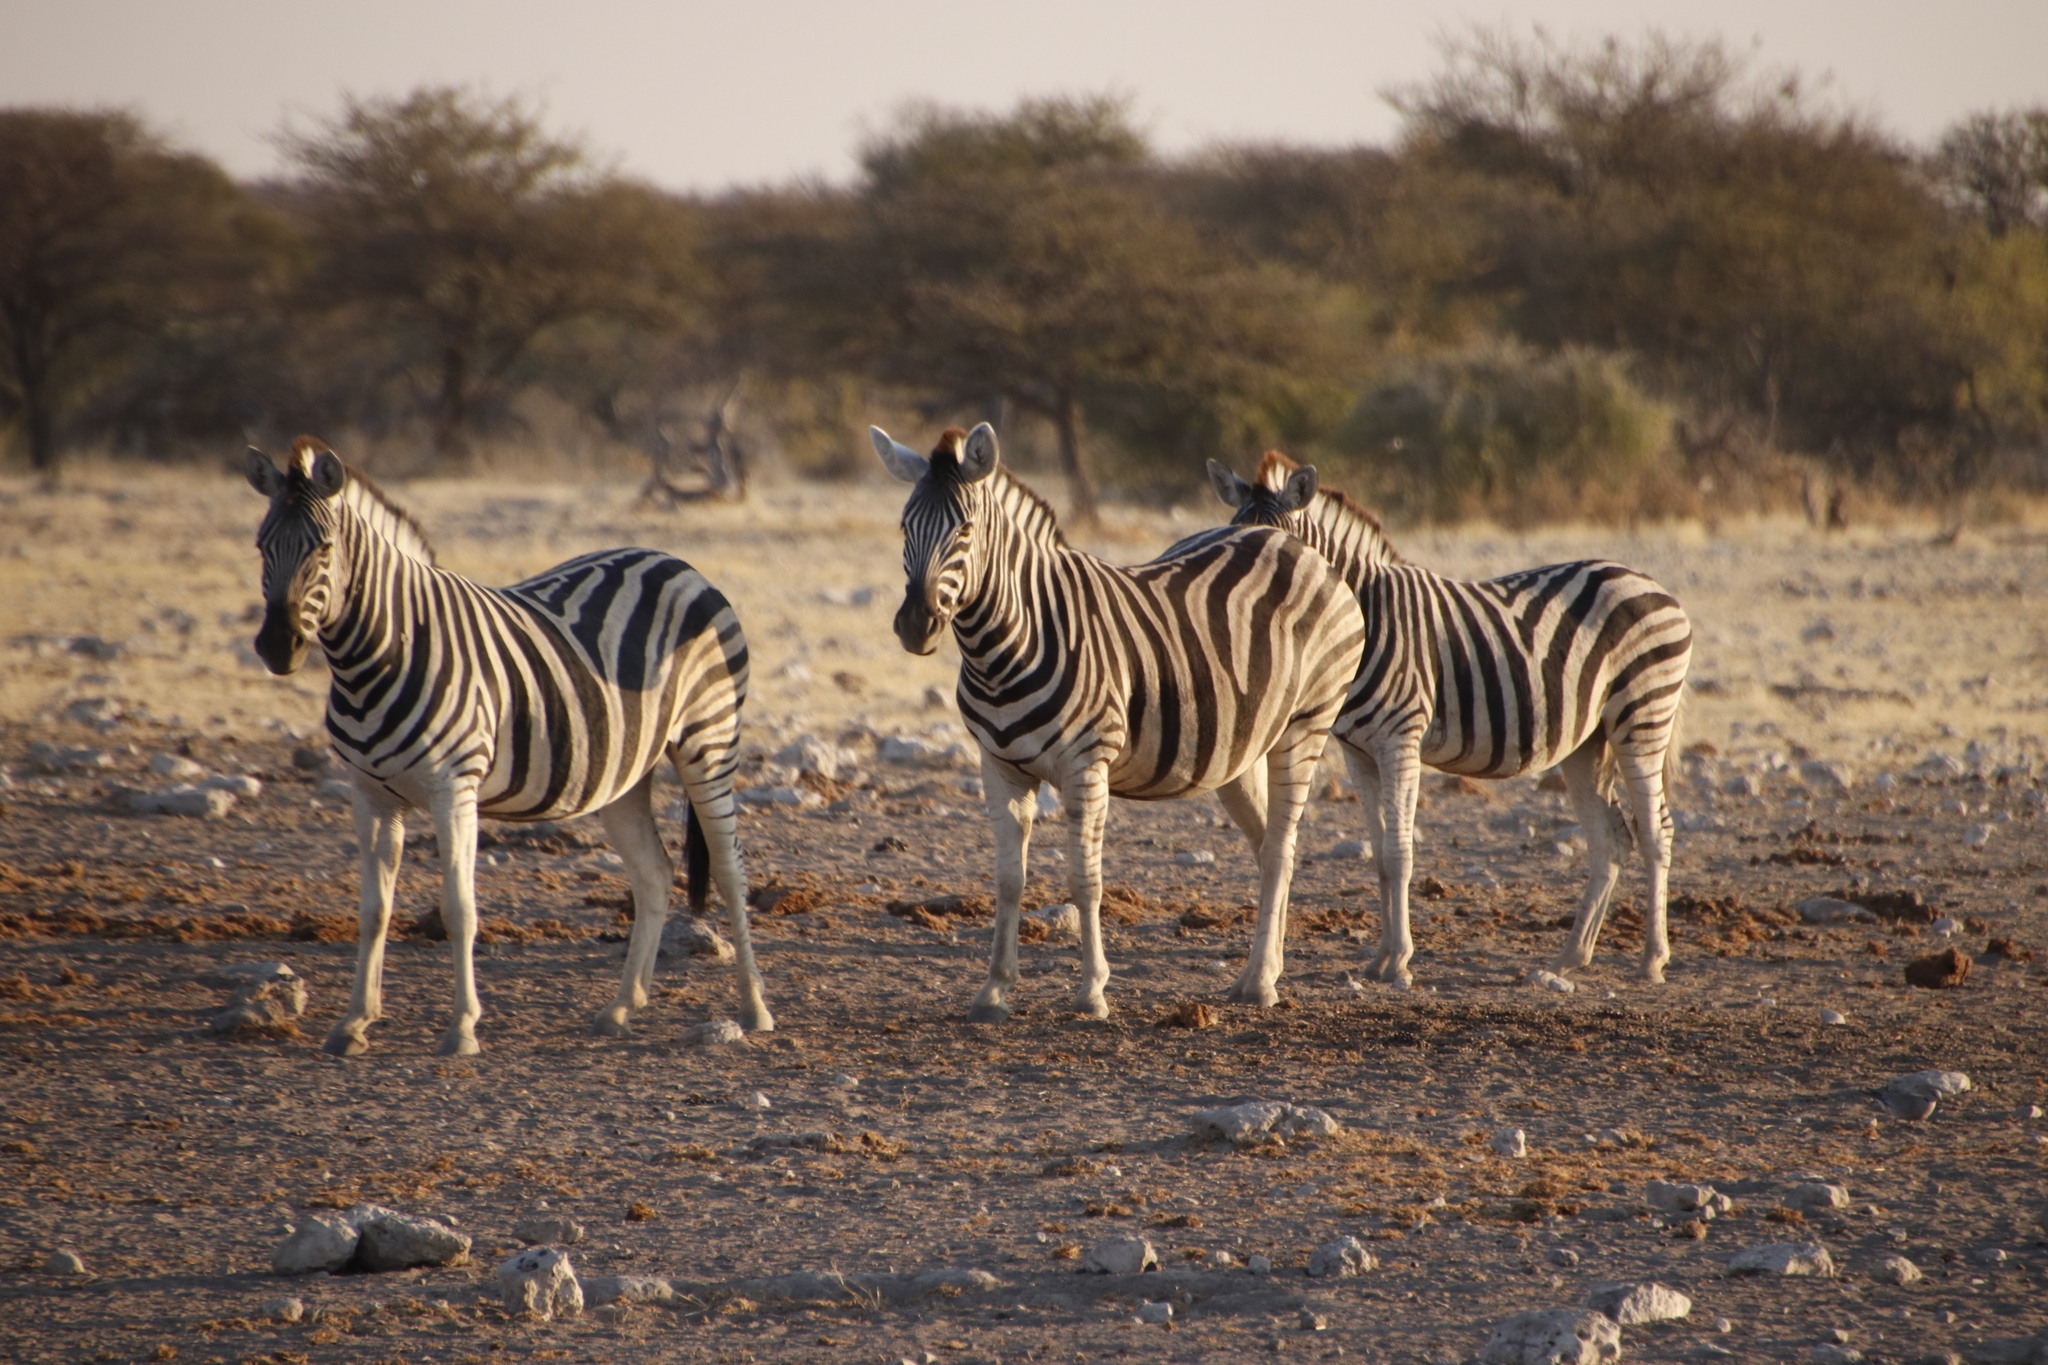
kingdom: Animalia
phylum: Chordata
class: Mammalia
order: Perissodactyla
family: Equidae
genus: Equus
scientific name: Equus quagga
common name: Plains zebra
